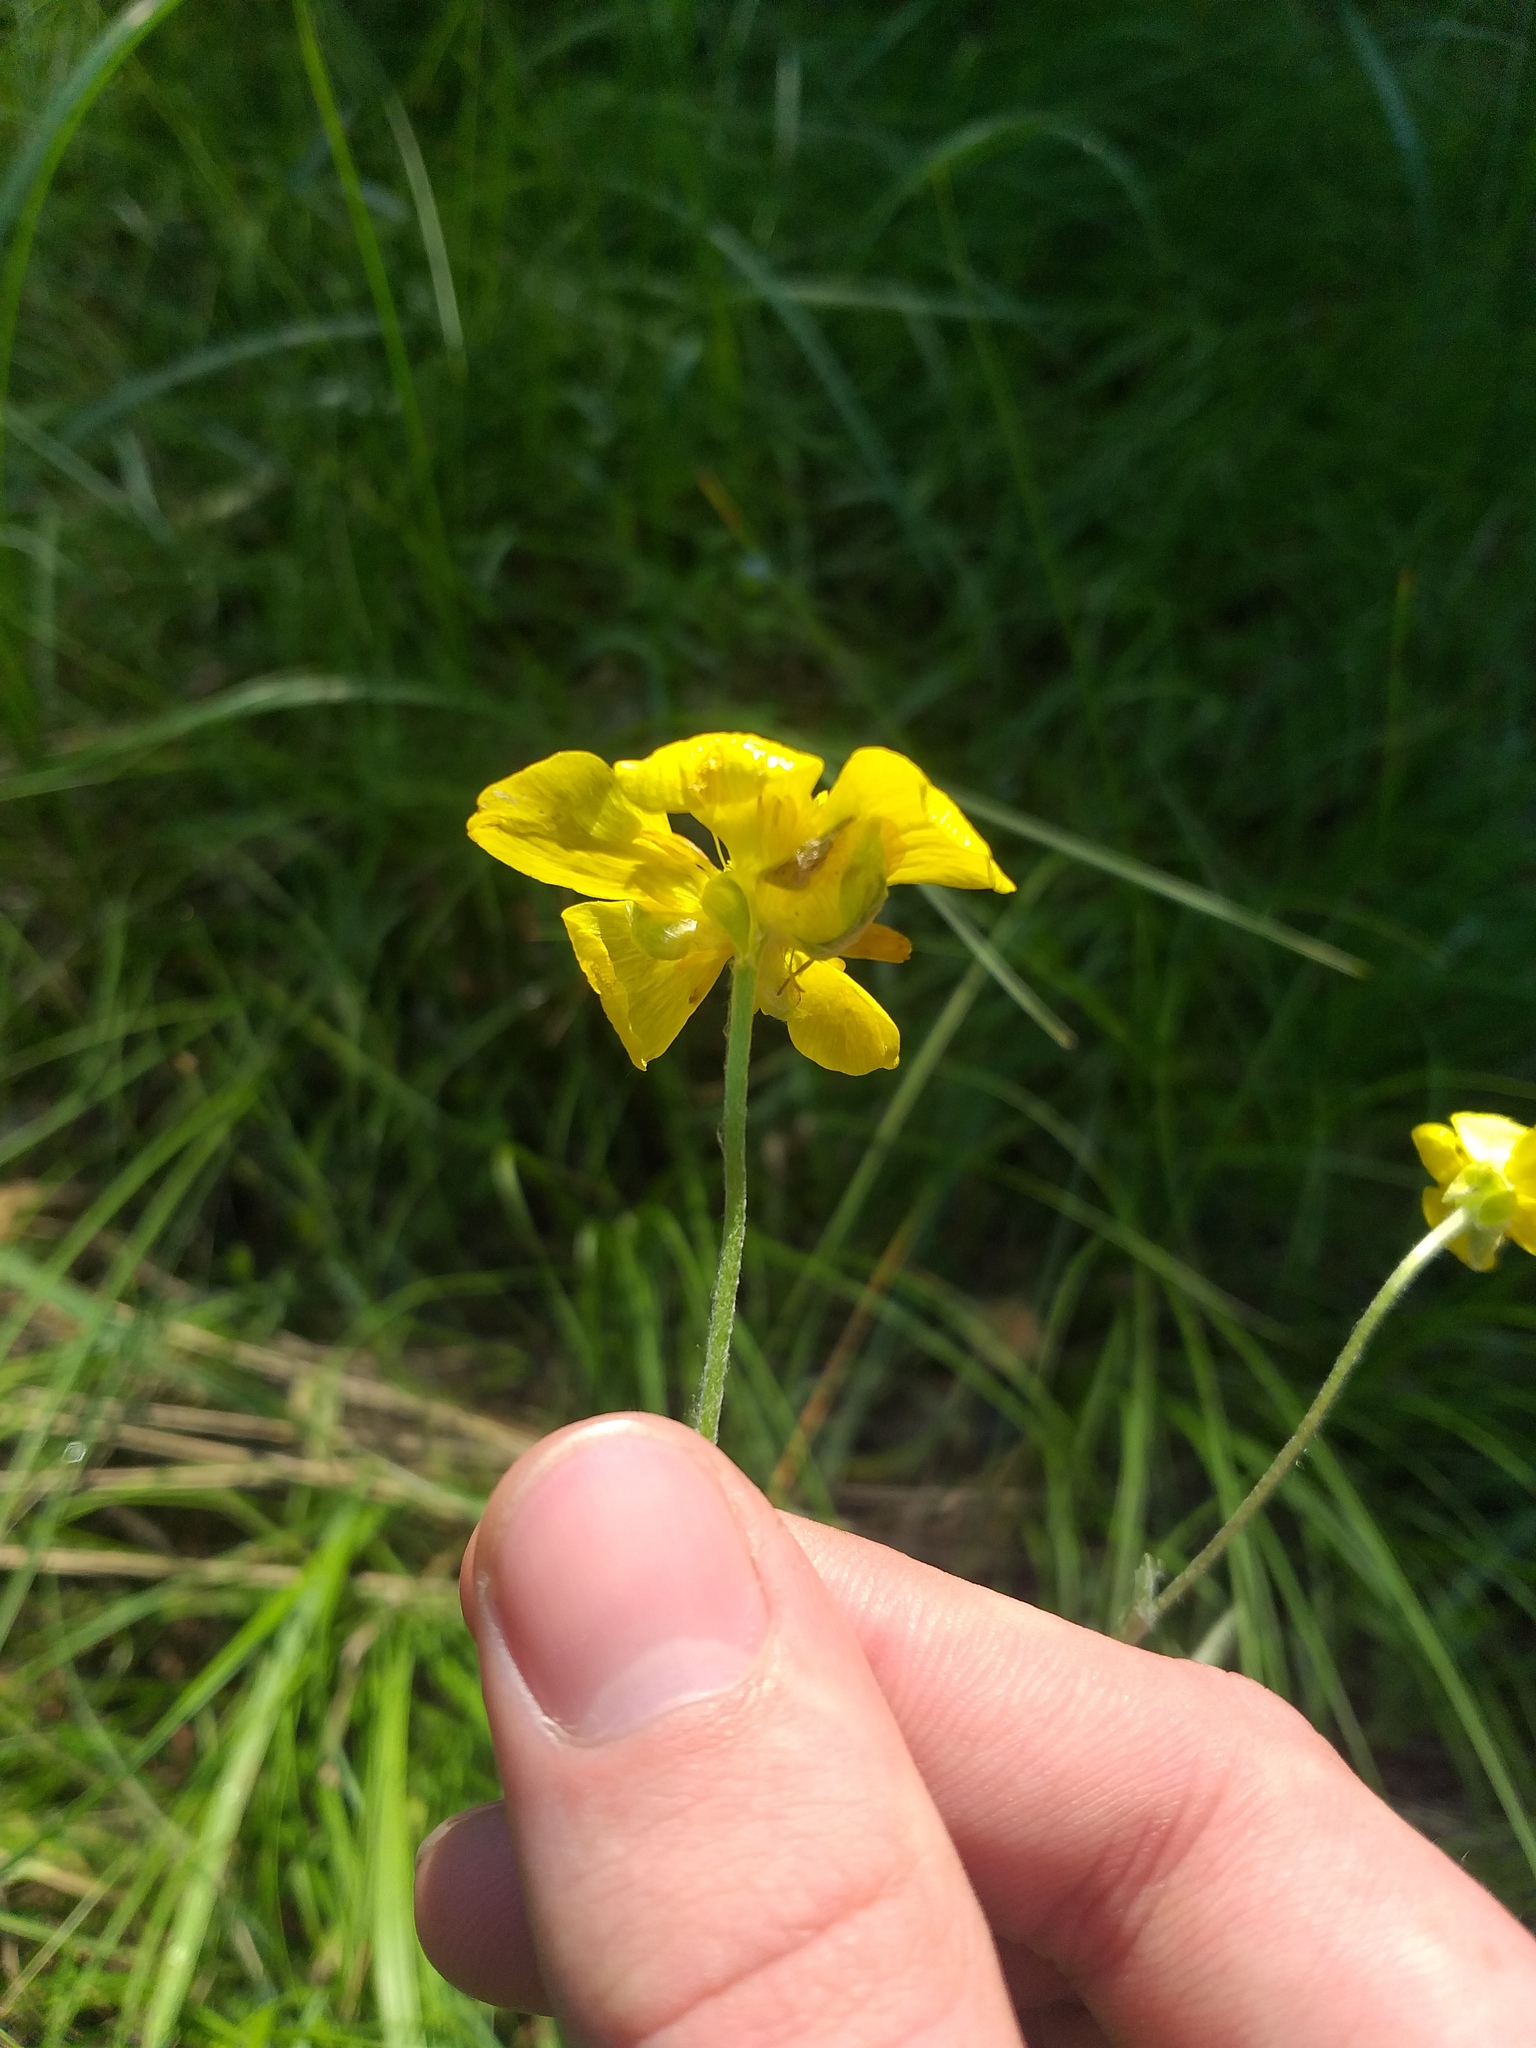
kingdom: Plantae
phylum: Tracheophyta
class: Magnoliopsida
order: Ranunculales
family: Ranunculaceae
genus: Ranunculus
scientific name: Ranunculus illyricus
